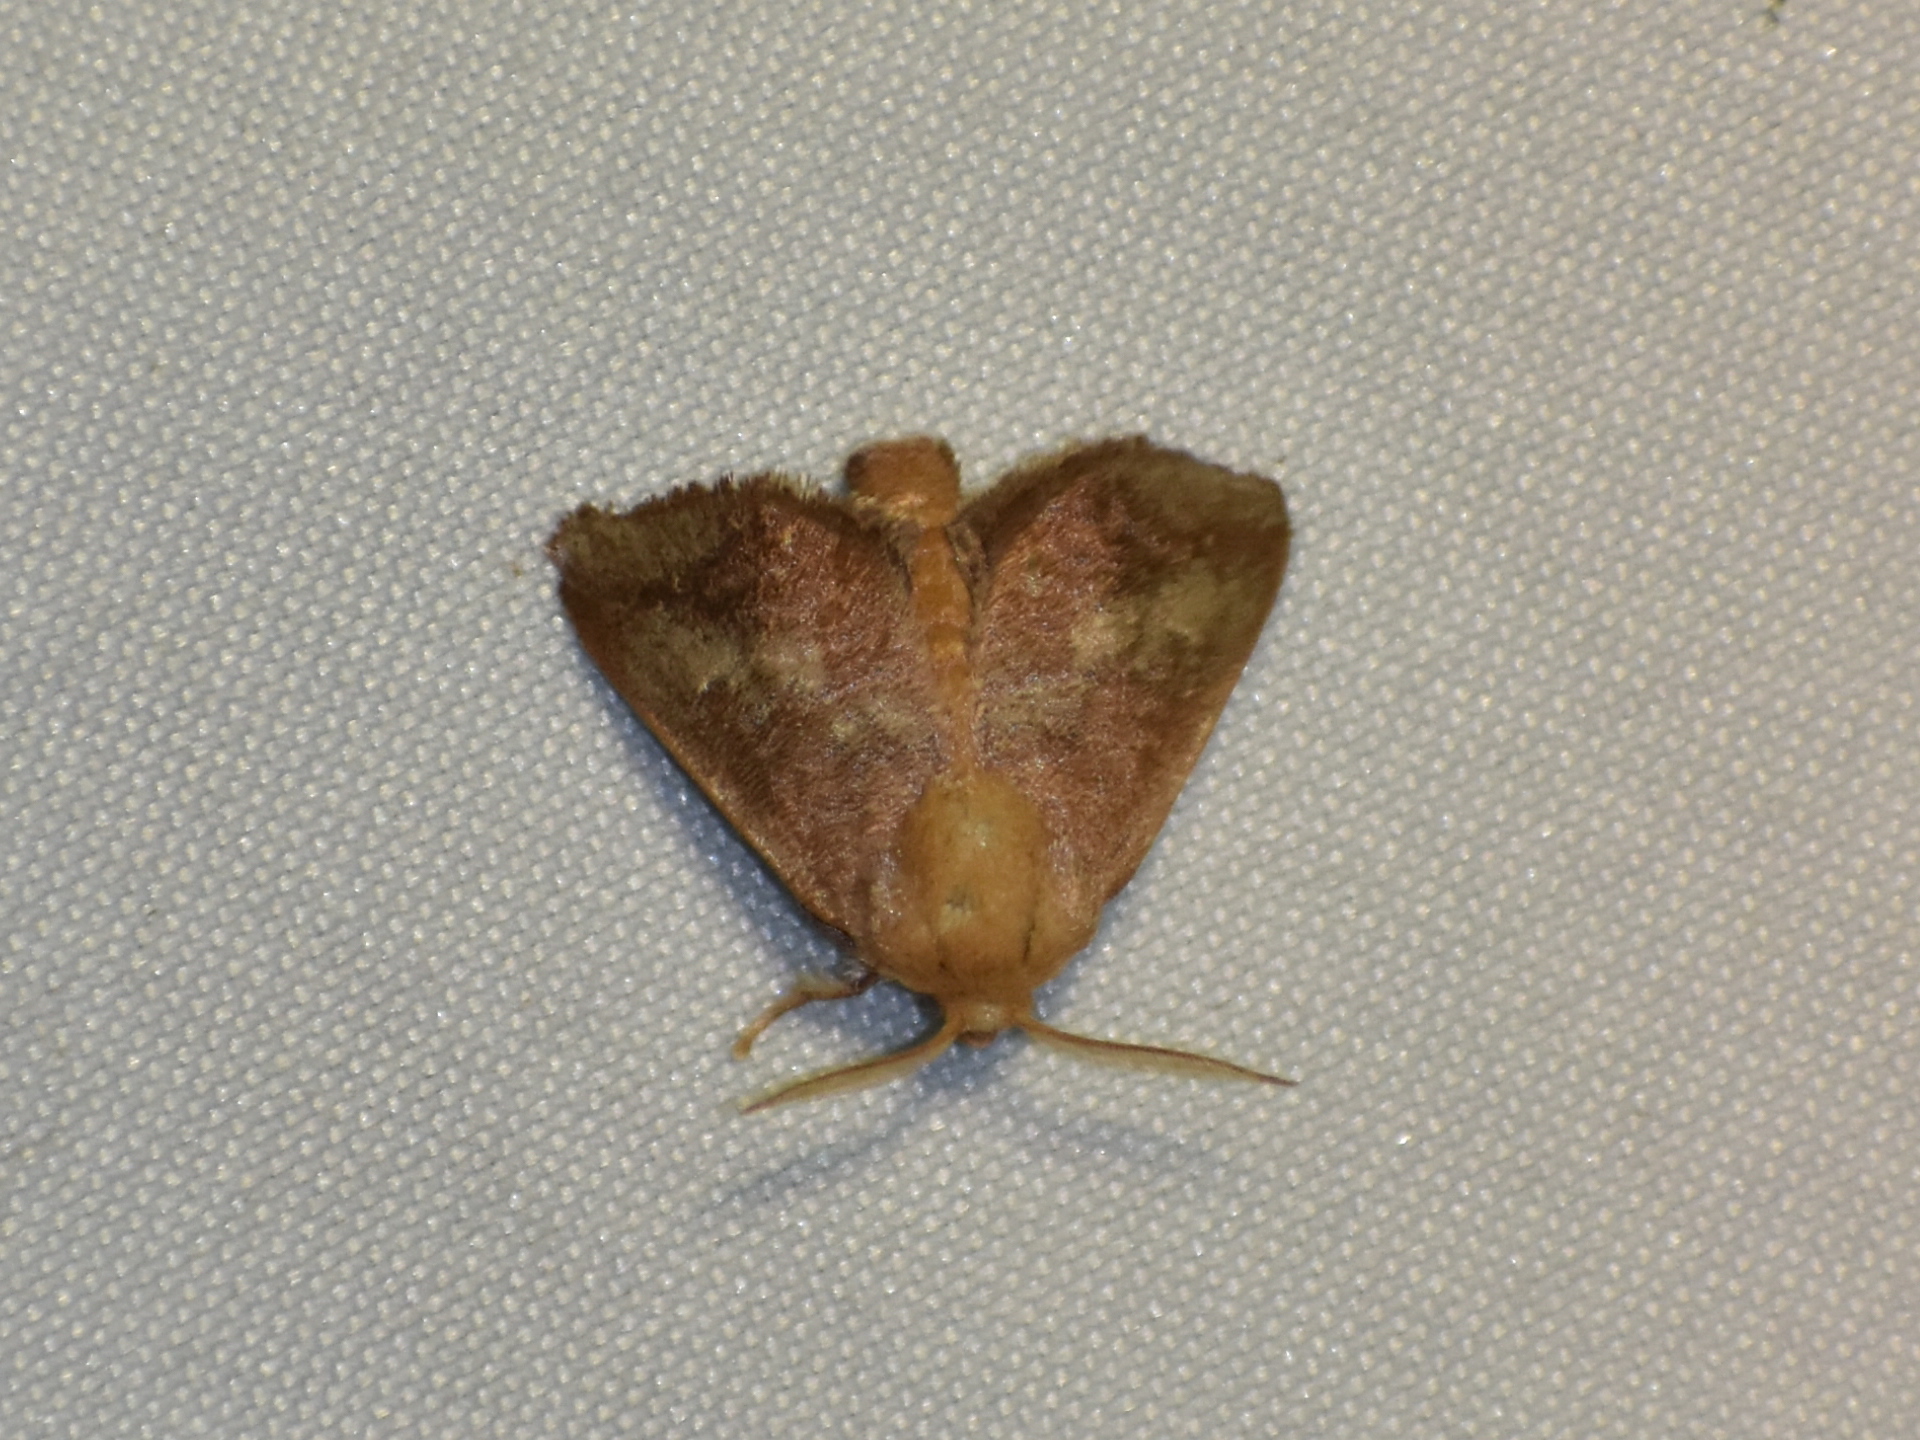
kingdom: Animalia
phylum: Arthropoda
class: Insecta
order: Lepidoptera
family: Limacodidae
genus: Isa
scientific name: Isa textula
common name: Crowned slug moth
